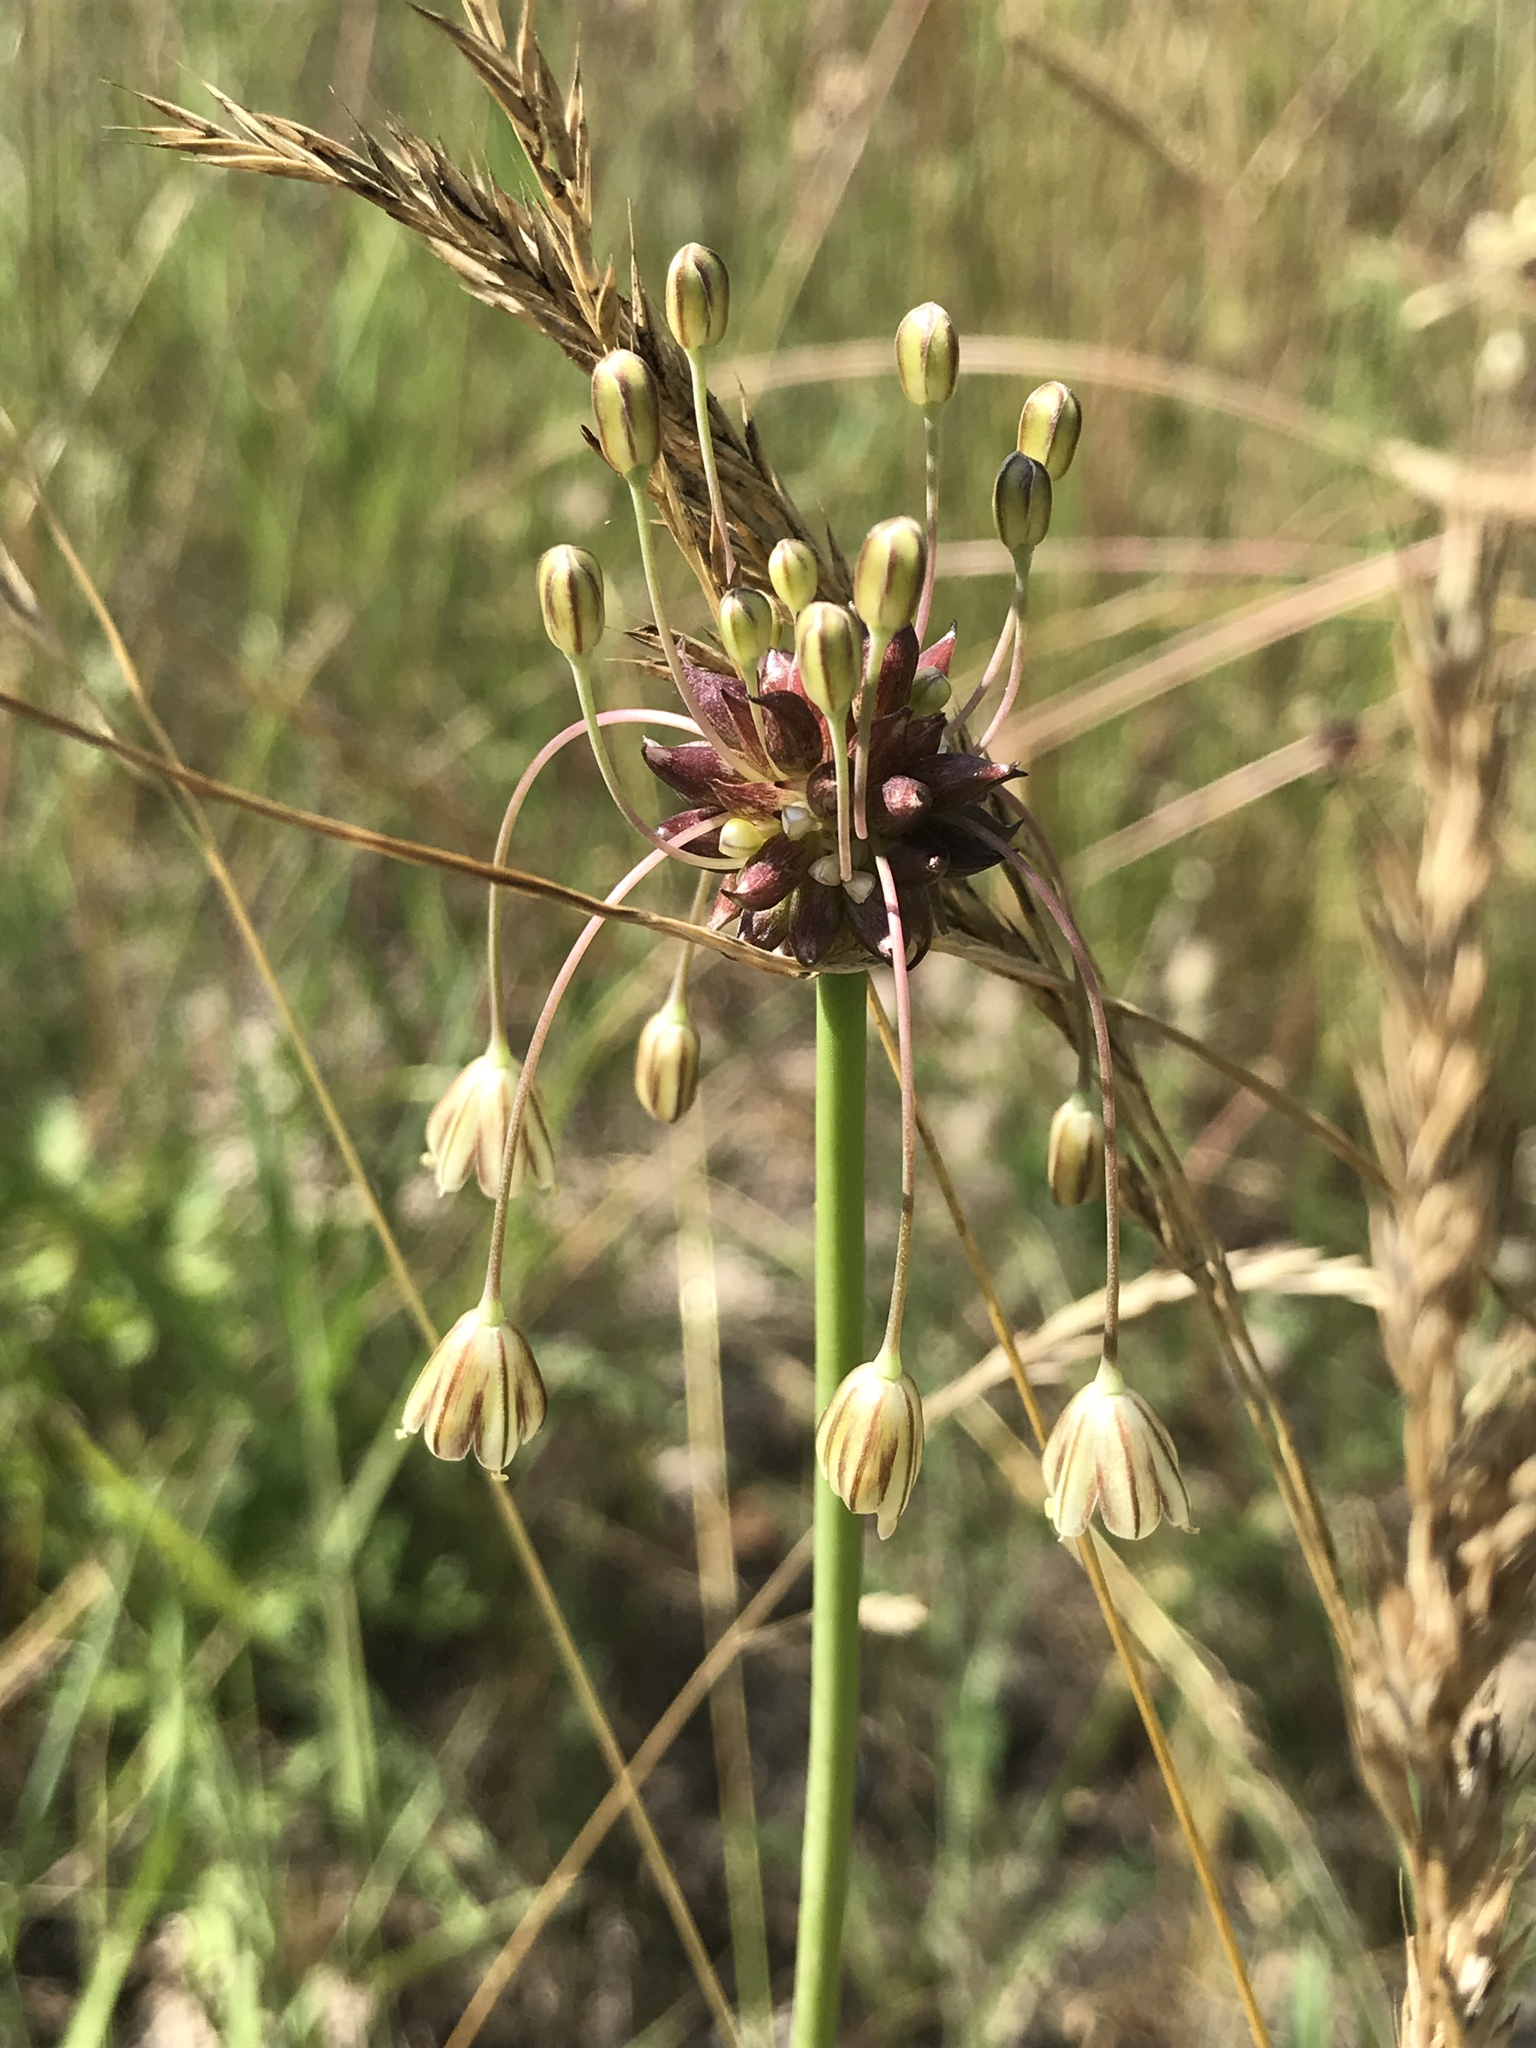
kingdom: Plantae
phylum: Tracheophyta
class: Liliopsida
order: Asparagales
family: Amaryllidaceae
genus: Allium
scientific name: Allium oleraceum
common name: Field garlic
